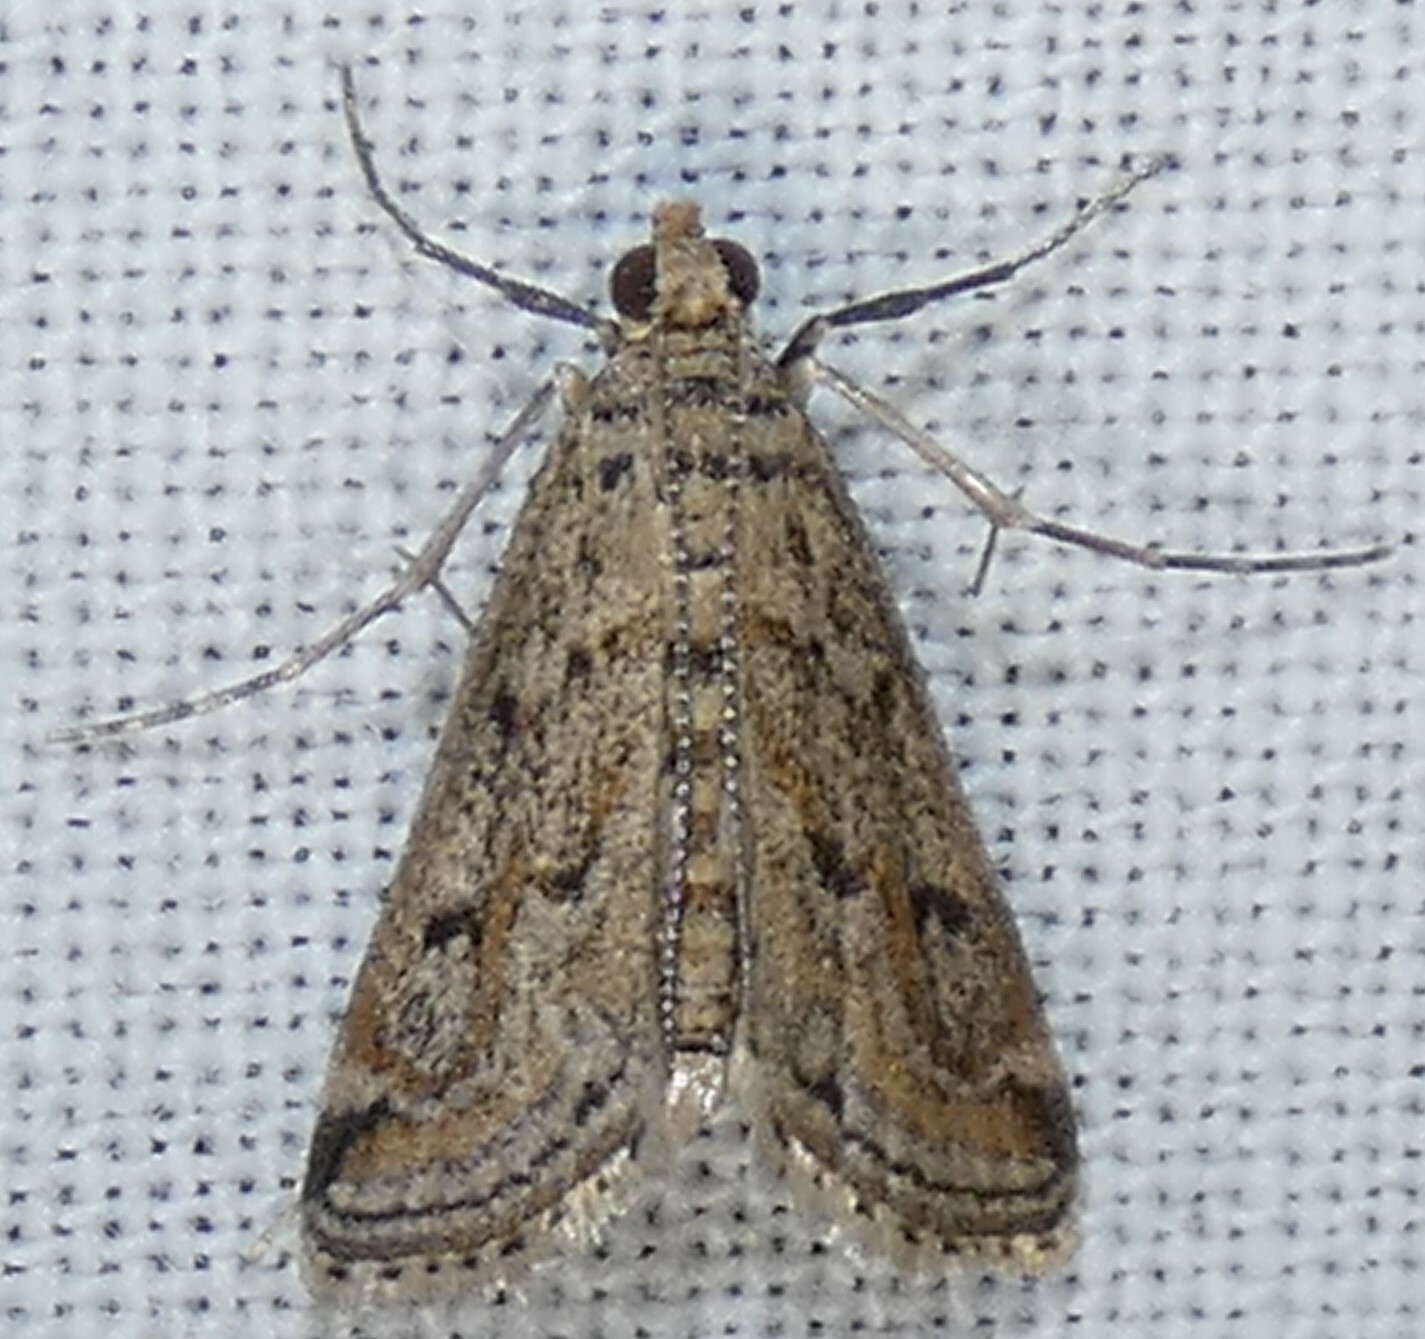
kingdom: Animalia
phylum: Arthropoda
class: Insecta
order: Lepidoptera
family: Crambidae
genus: Parapoynx
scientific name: Parapoynx allionealis
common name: Bladderwort casemaker
